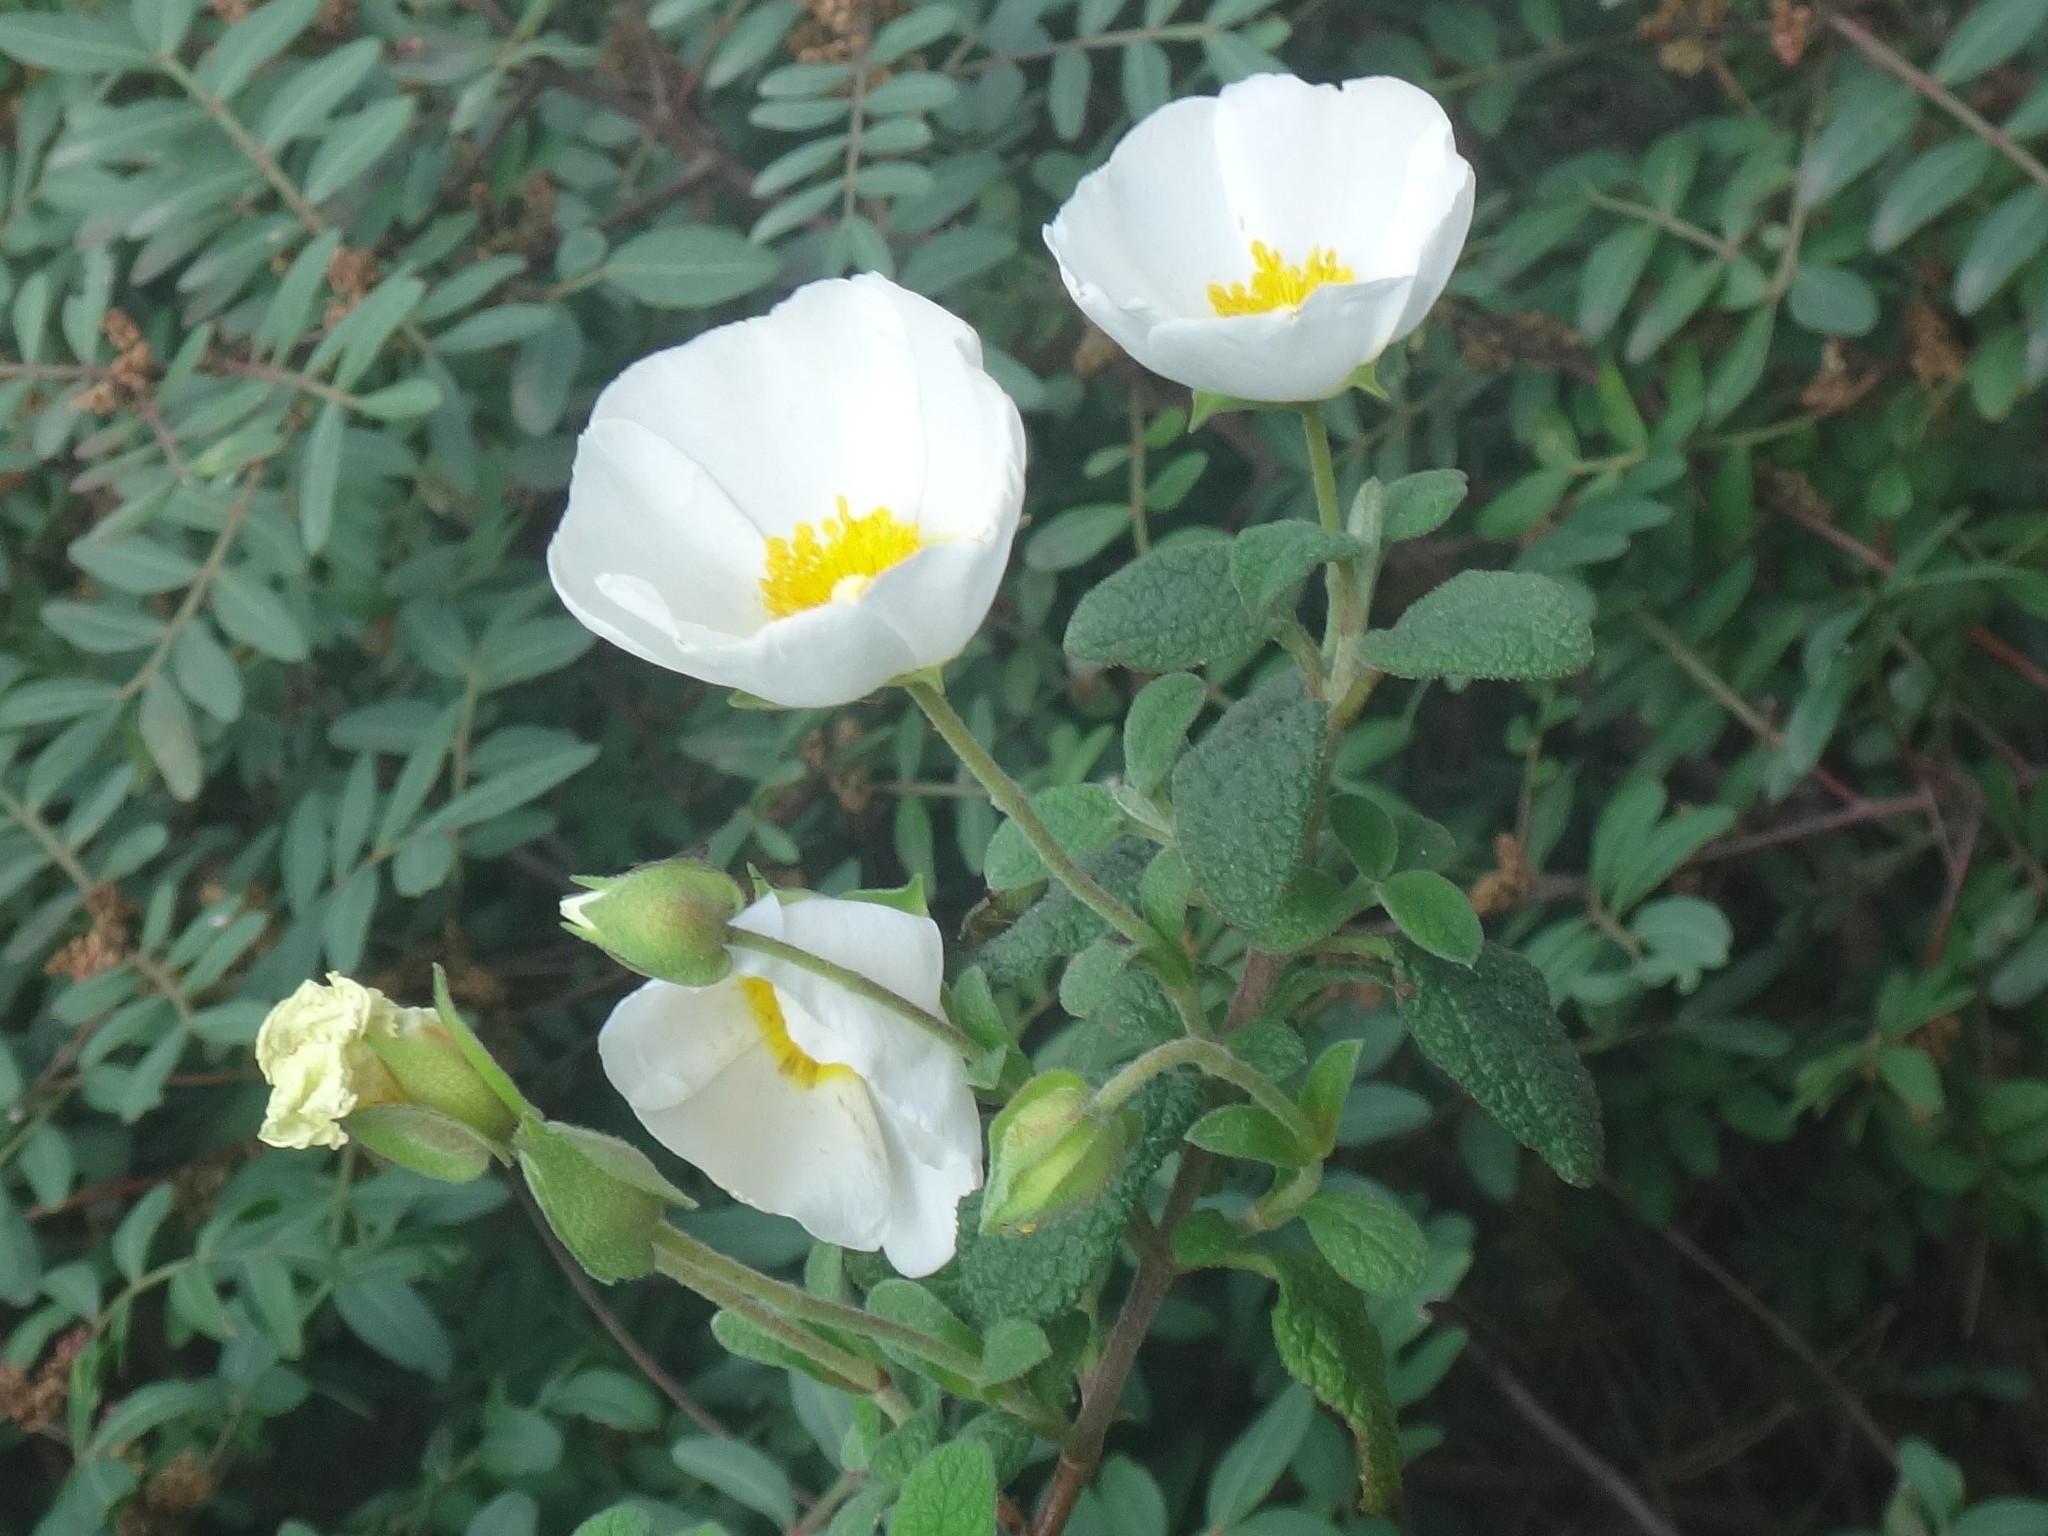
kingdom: Plantae
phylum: Tracheophyta
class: Magnoliopsida
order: Malvales
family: Cistaceae
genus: Cistus
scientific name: Cistus salviifolius
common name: Salvia cistus
